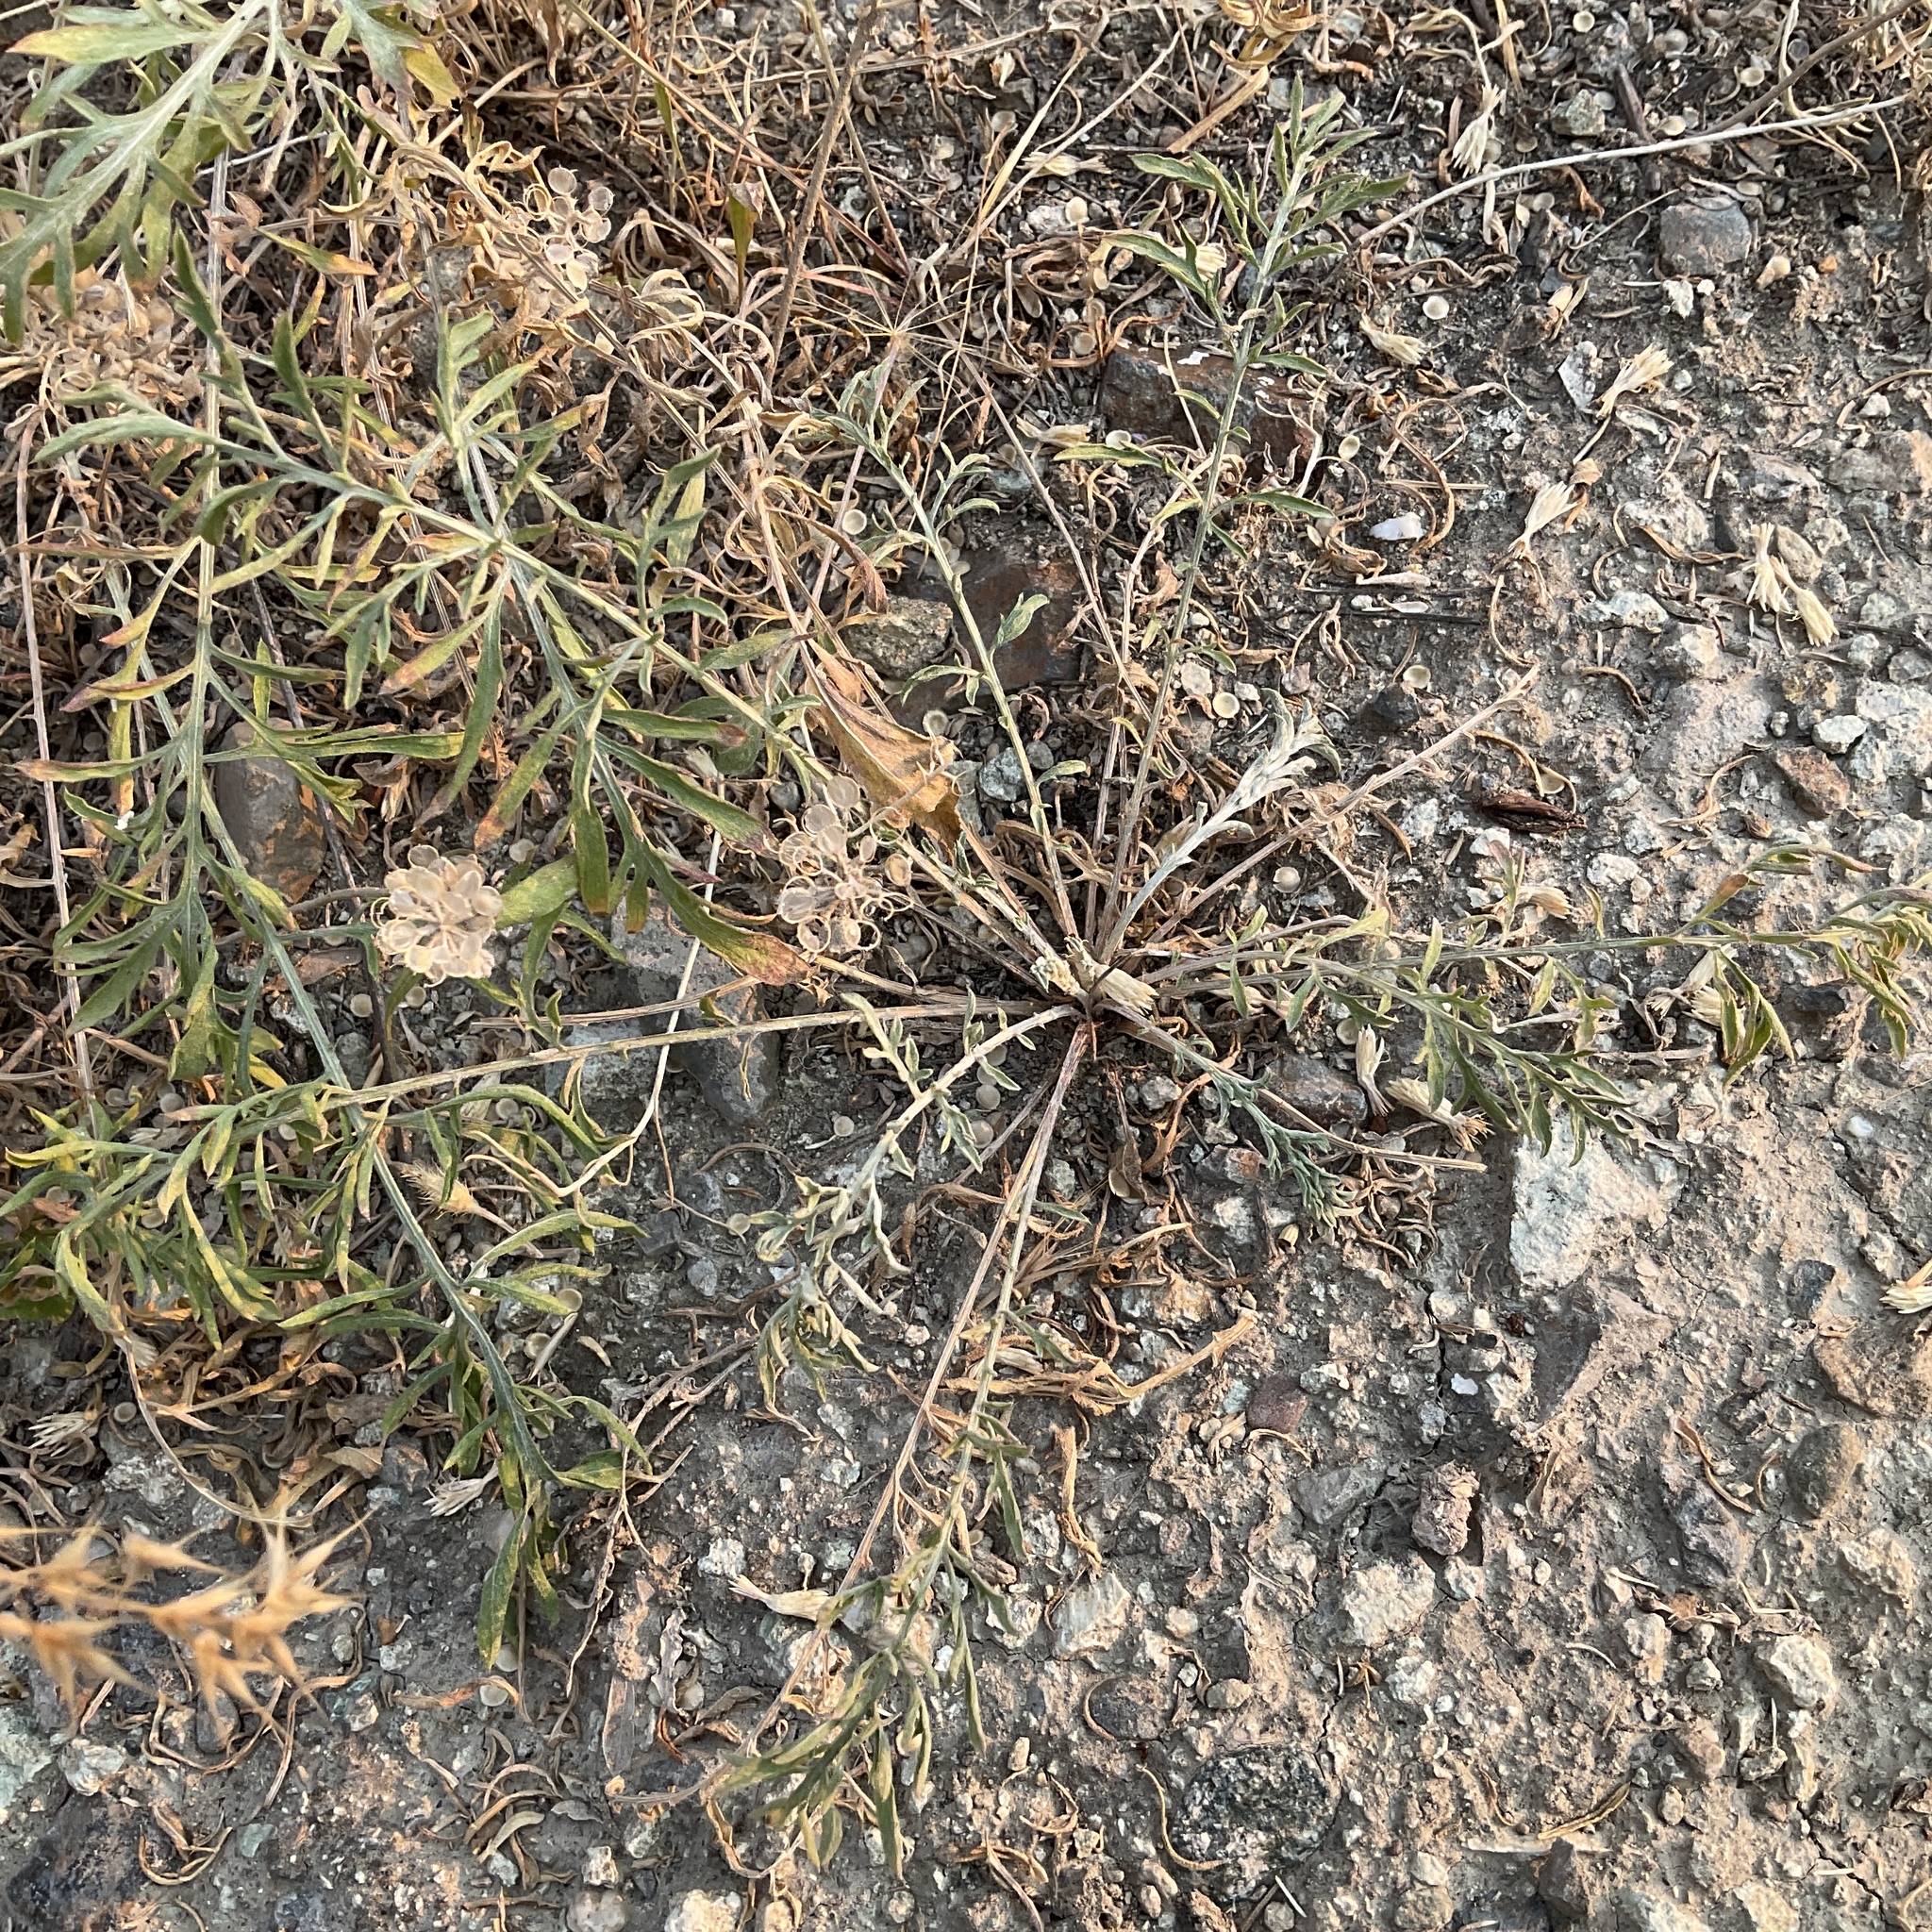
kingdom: Plantae
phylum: Tracheophyta
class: Magnoliopsida
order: Asterales
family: Asteraceae
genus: Centaurea
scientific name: Centaurea diffusa
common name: Diffuse knapweed
